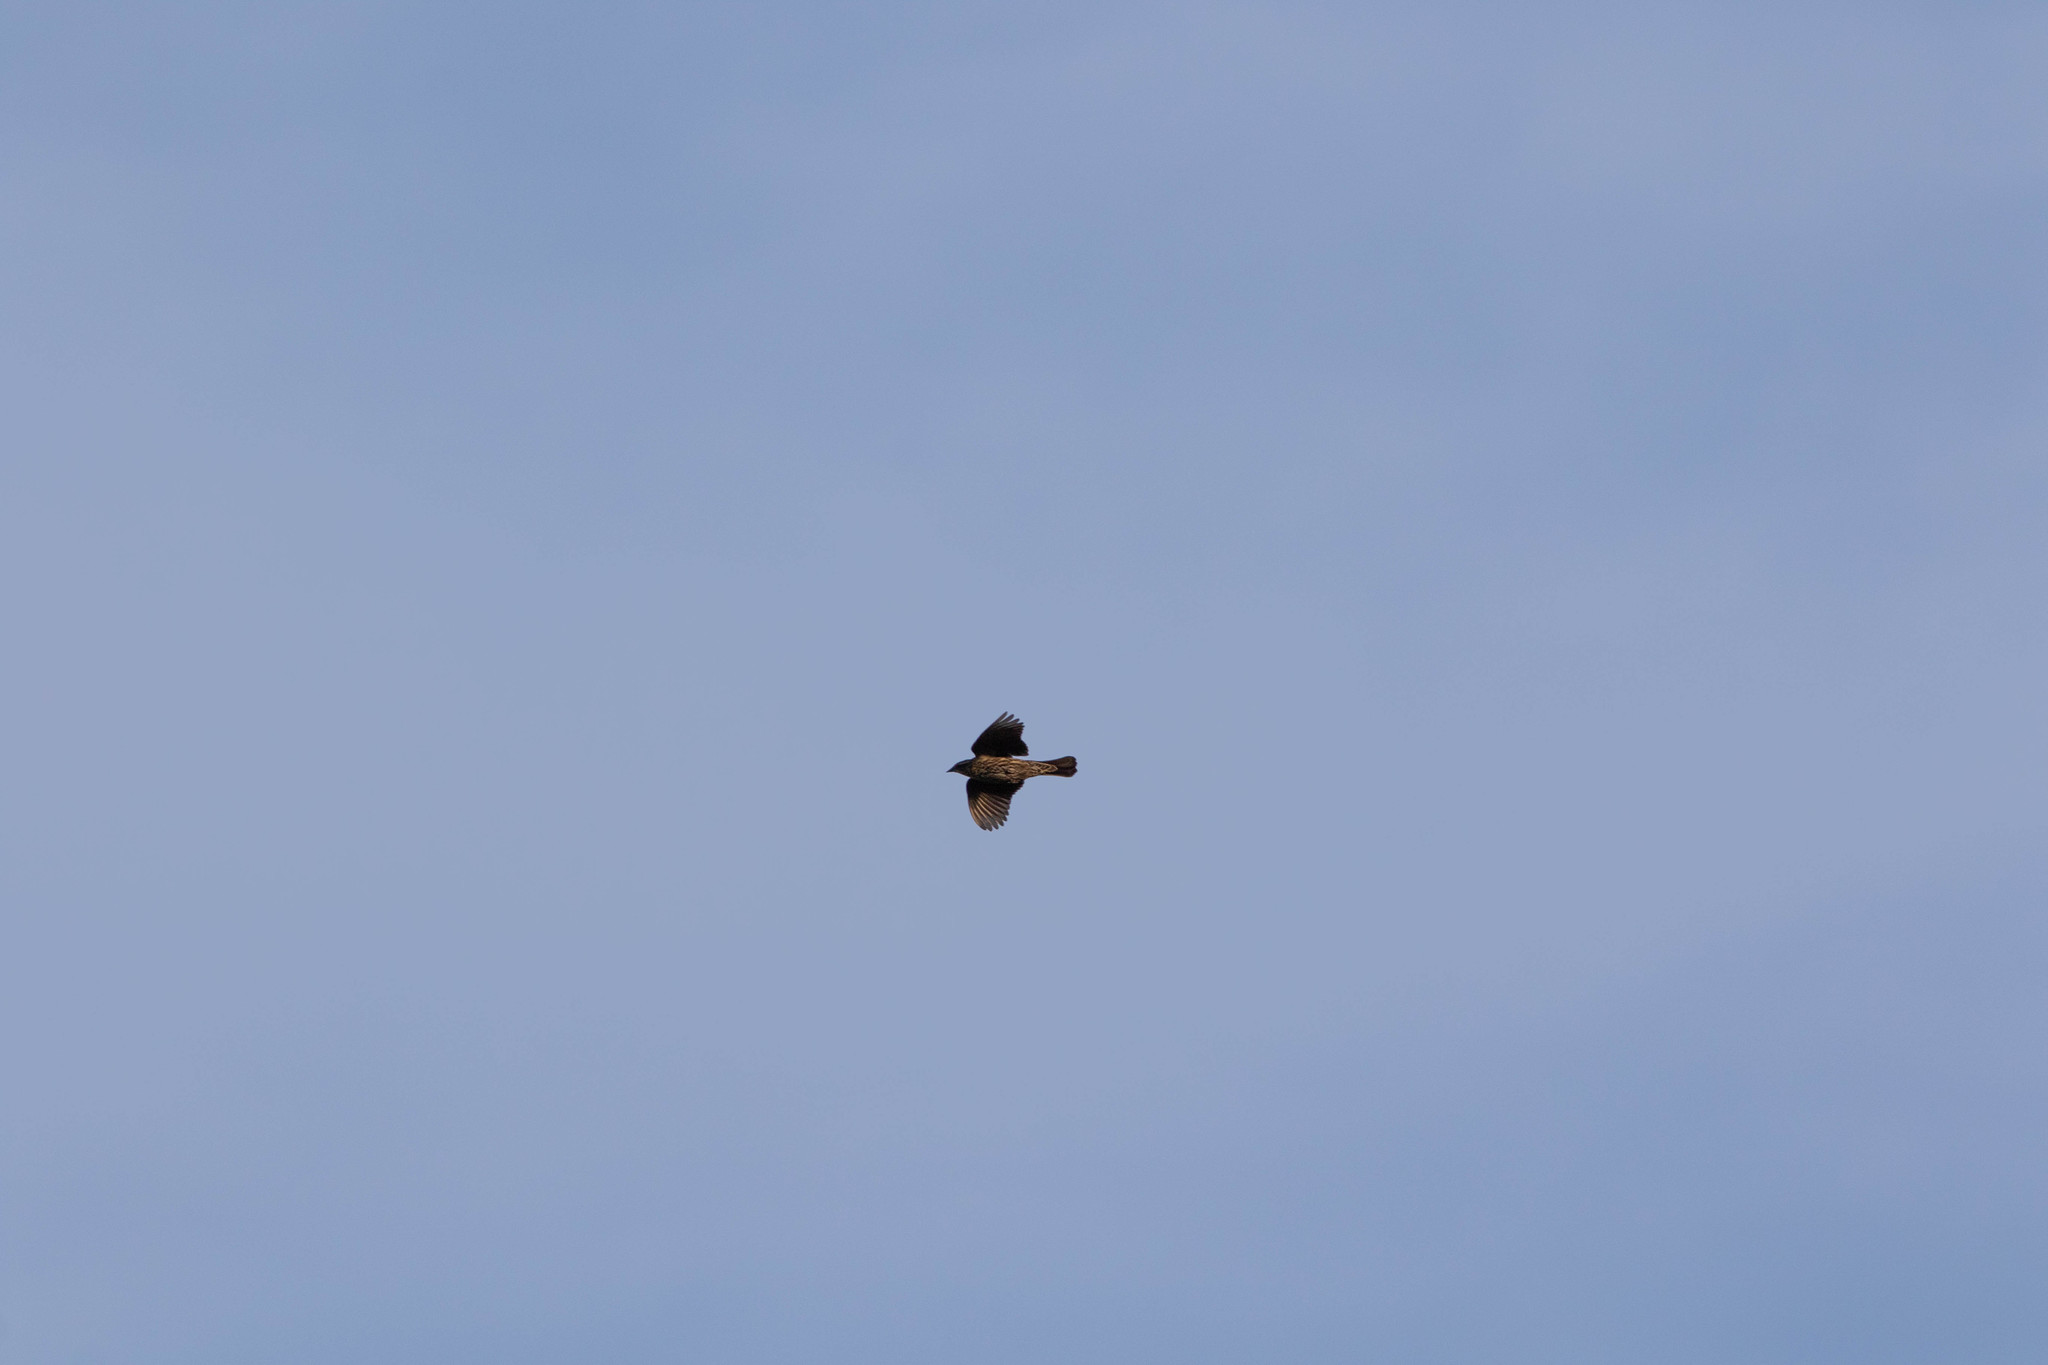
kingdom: Animalia
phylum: Chordata
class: Aves
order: Passeriformes
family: Icteridae
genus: Agelaius
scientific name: Agelaius phoeniceus
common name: Red-winged blackbird
